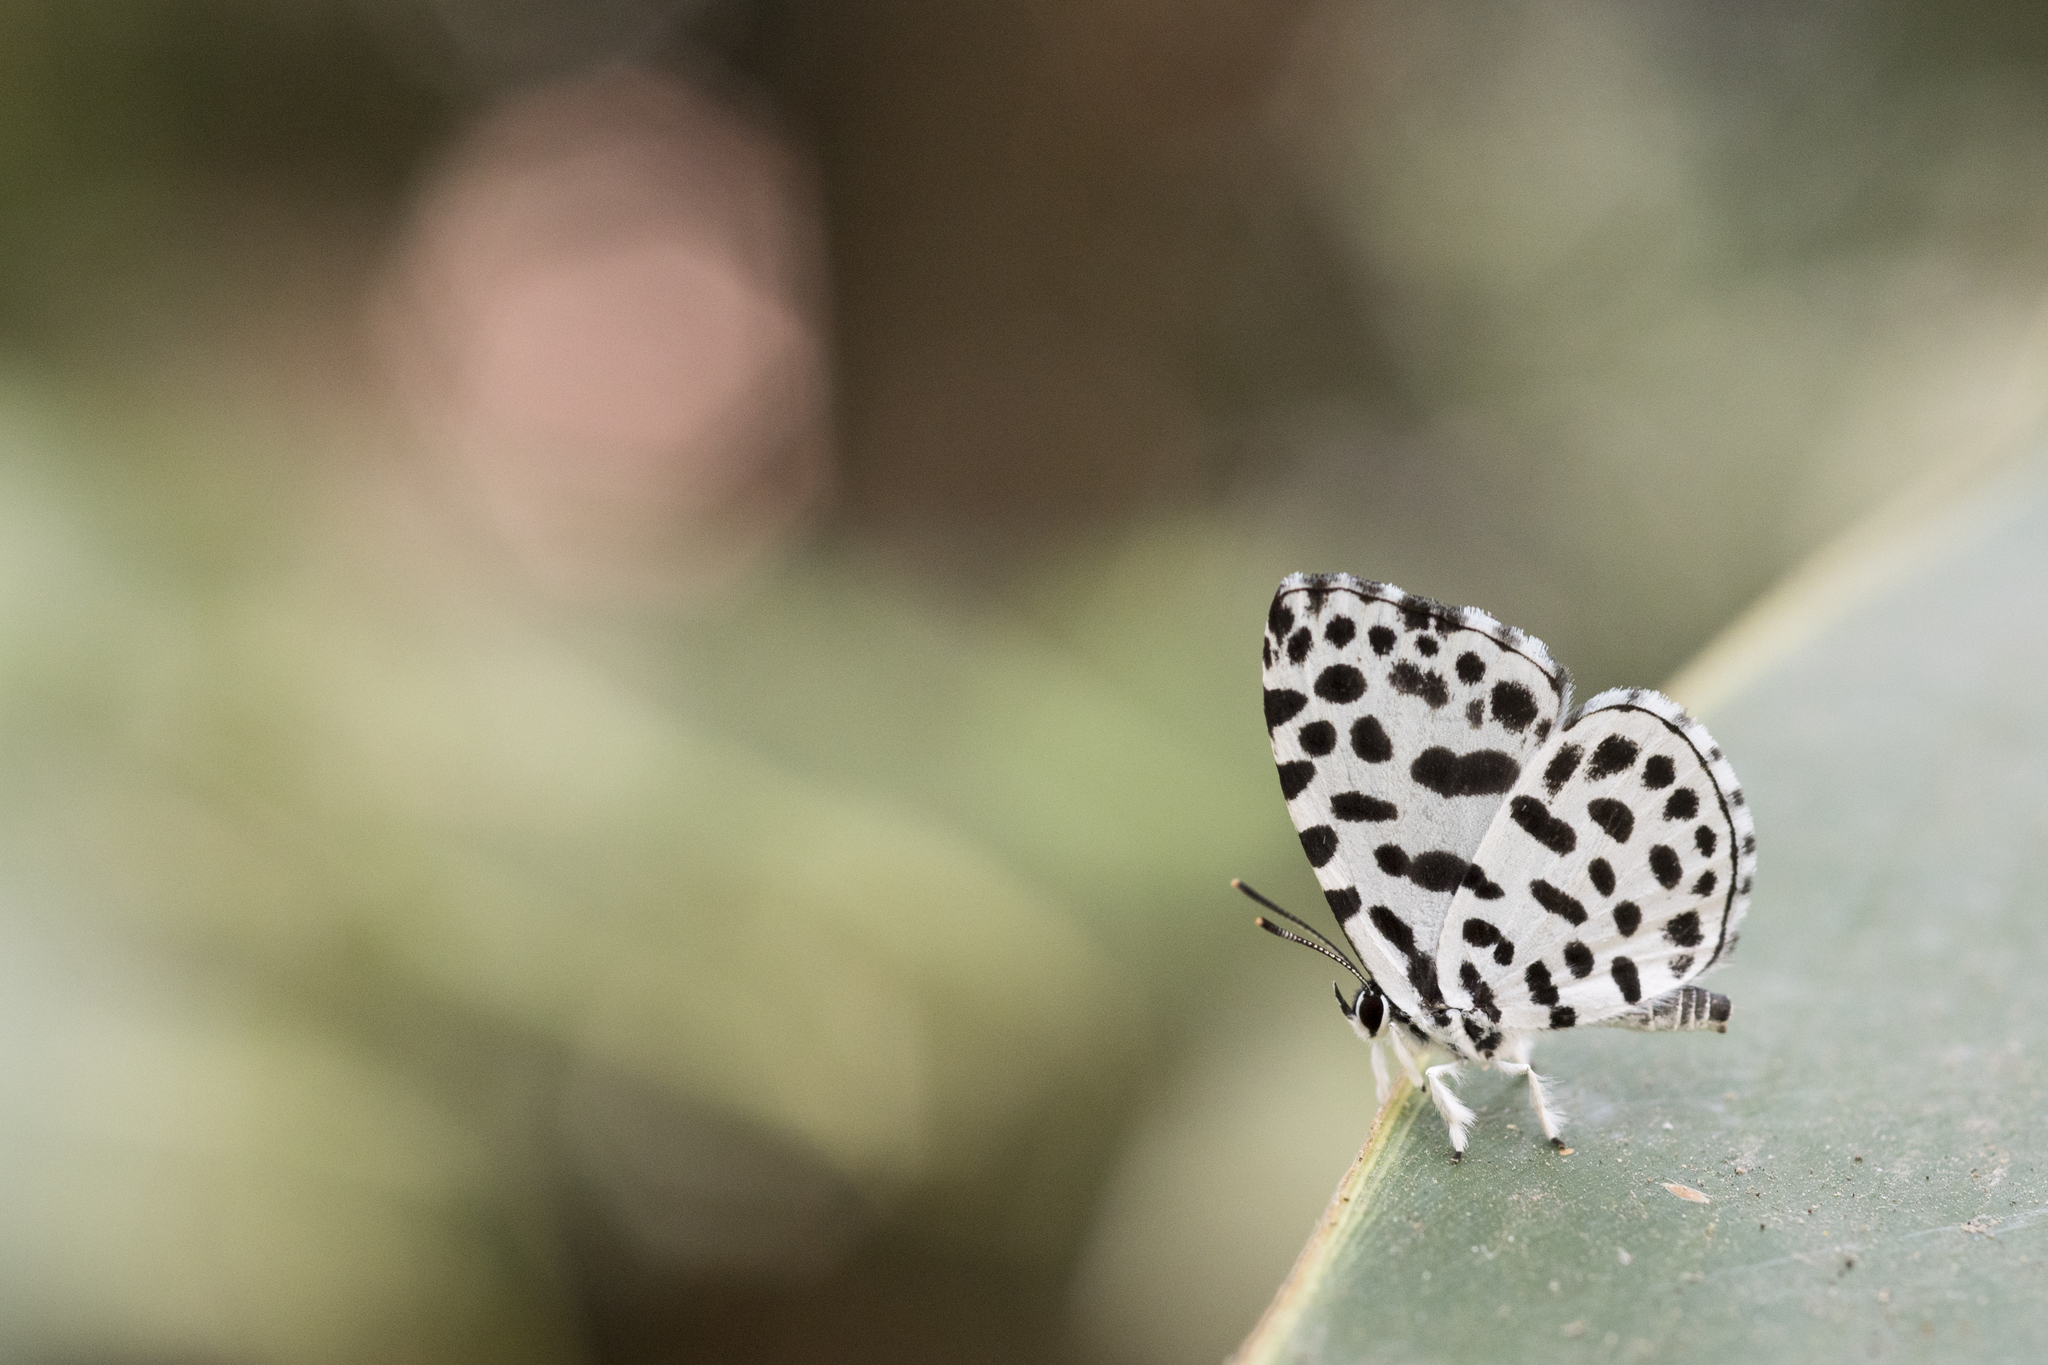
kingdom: Animalia
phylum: Arthropoda
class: Insecta
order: Lepidoptera
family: Lycaenidae
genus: Taraka
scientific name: Taraka hamada
